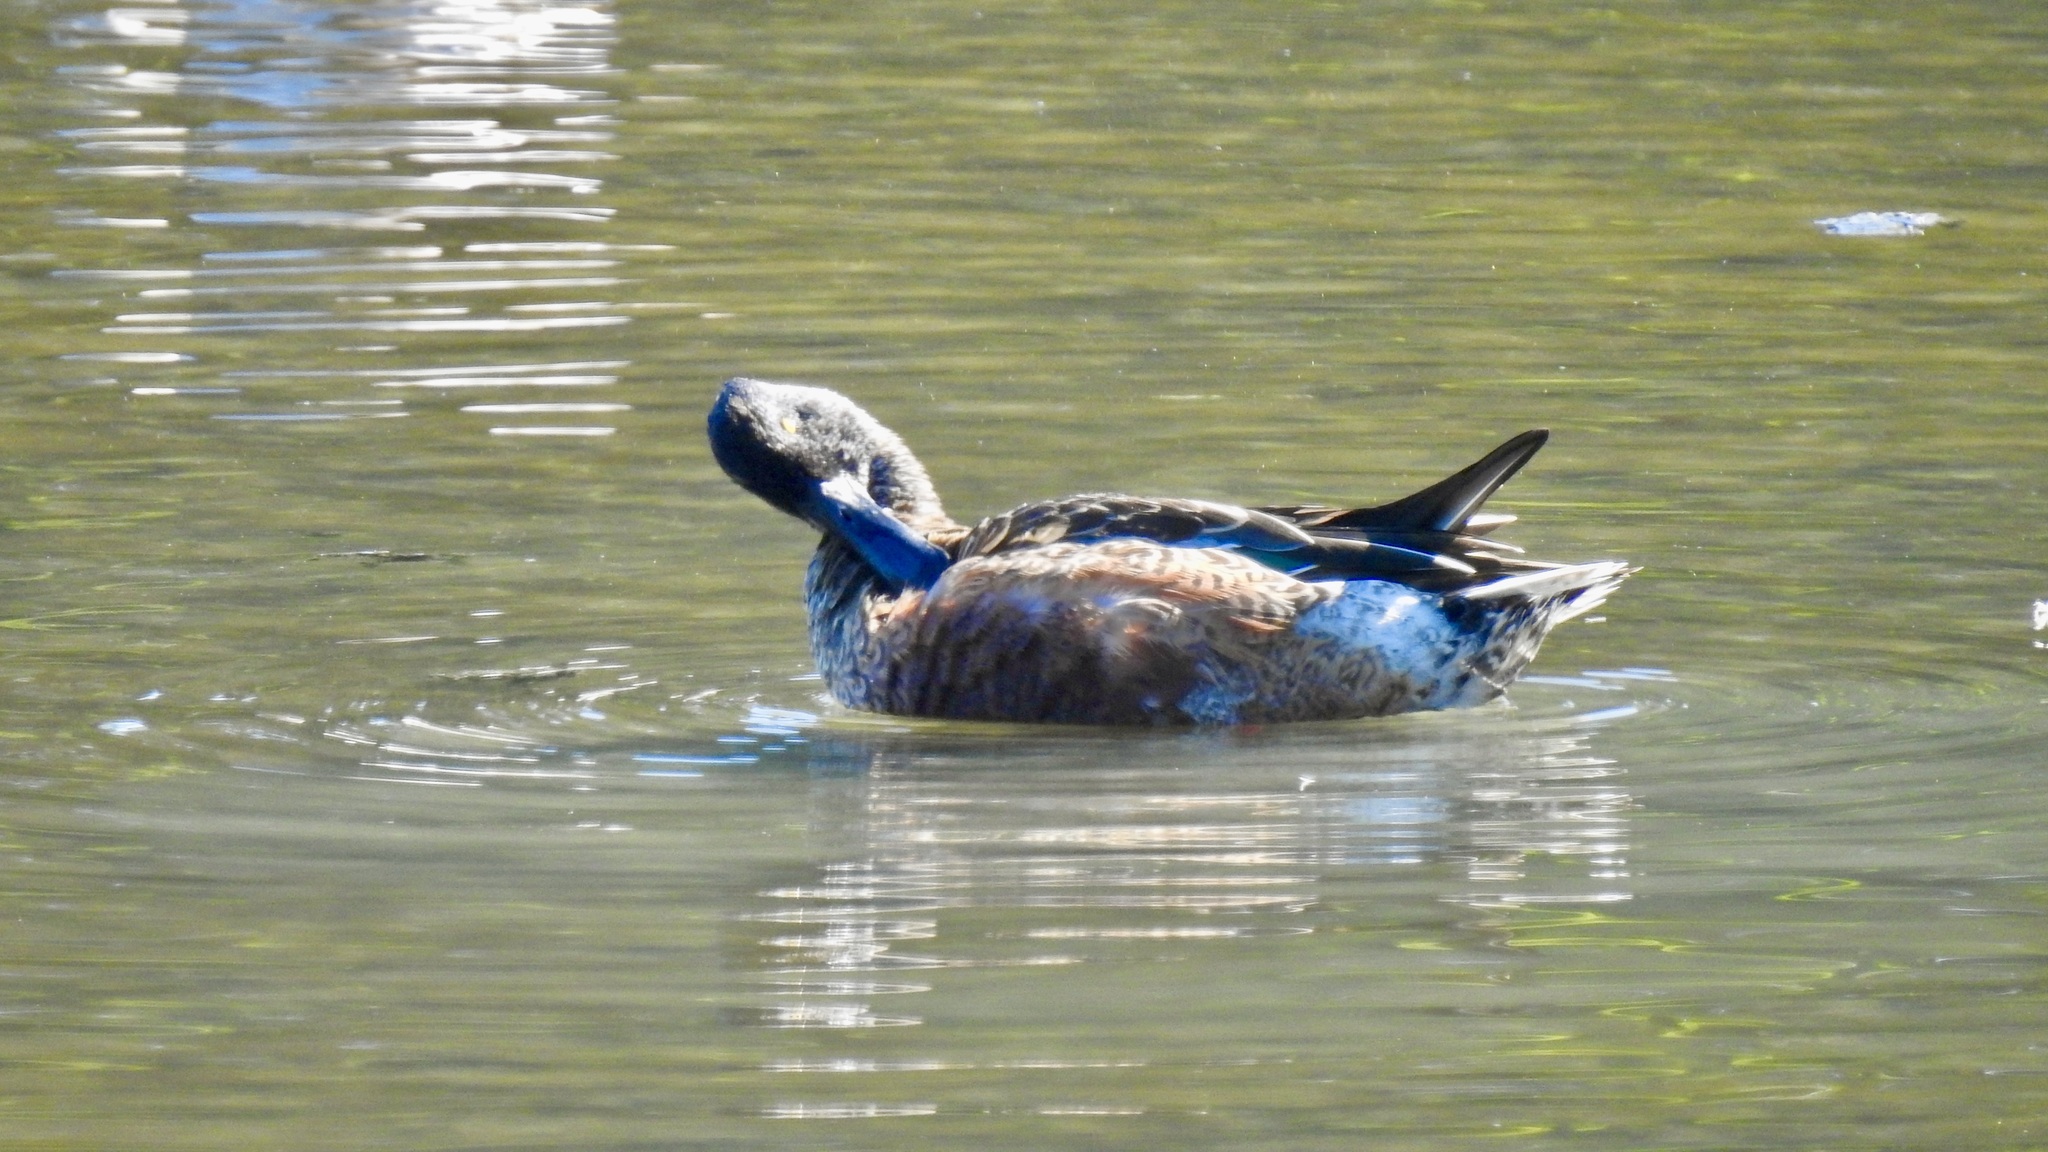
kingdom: Animalia
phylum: Chordata
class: Aves
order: Anseriformes
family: Anatidae
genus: Spatula
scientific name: Spatula clypeata
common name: Northern shoveler
